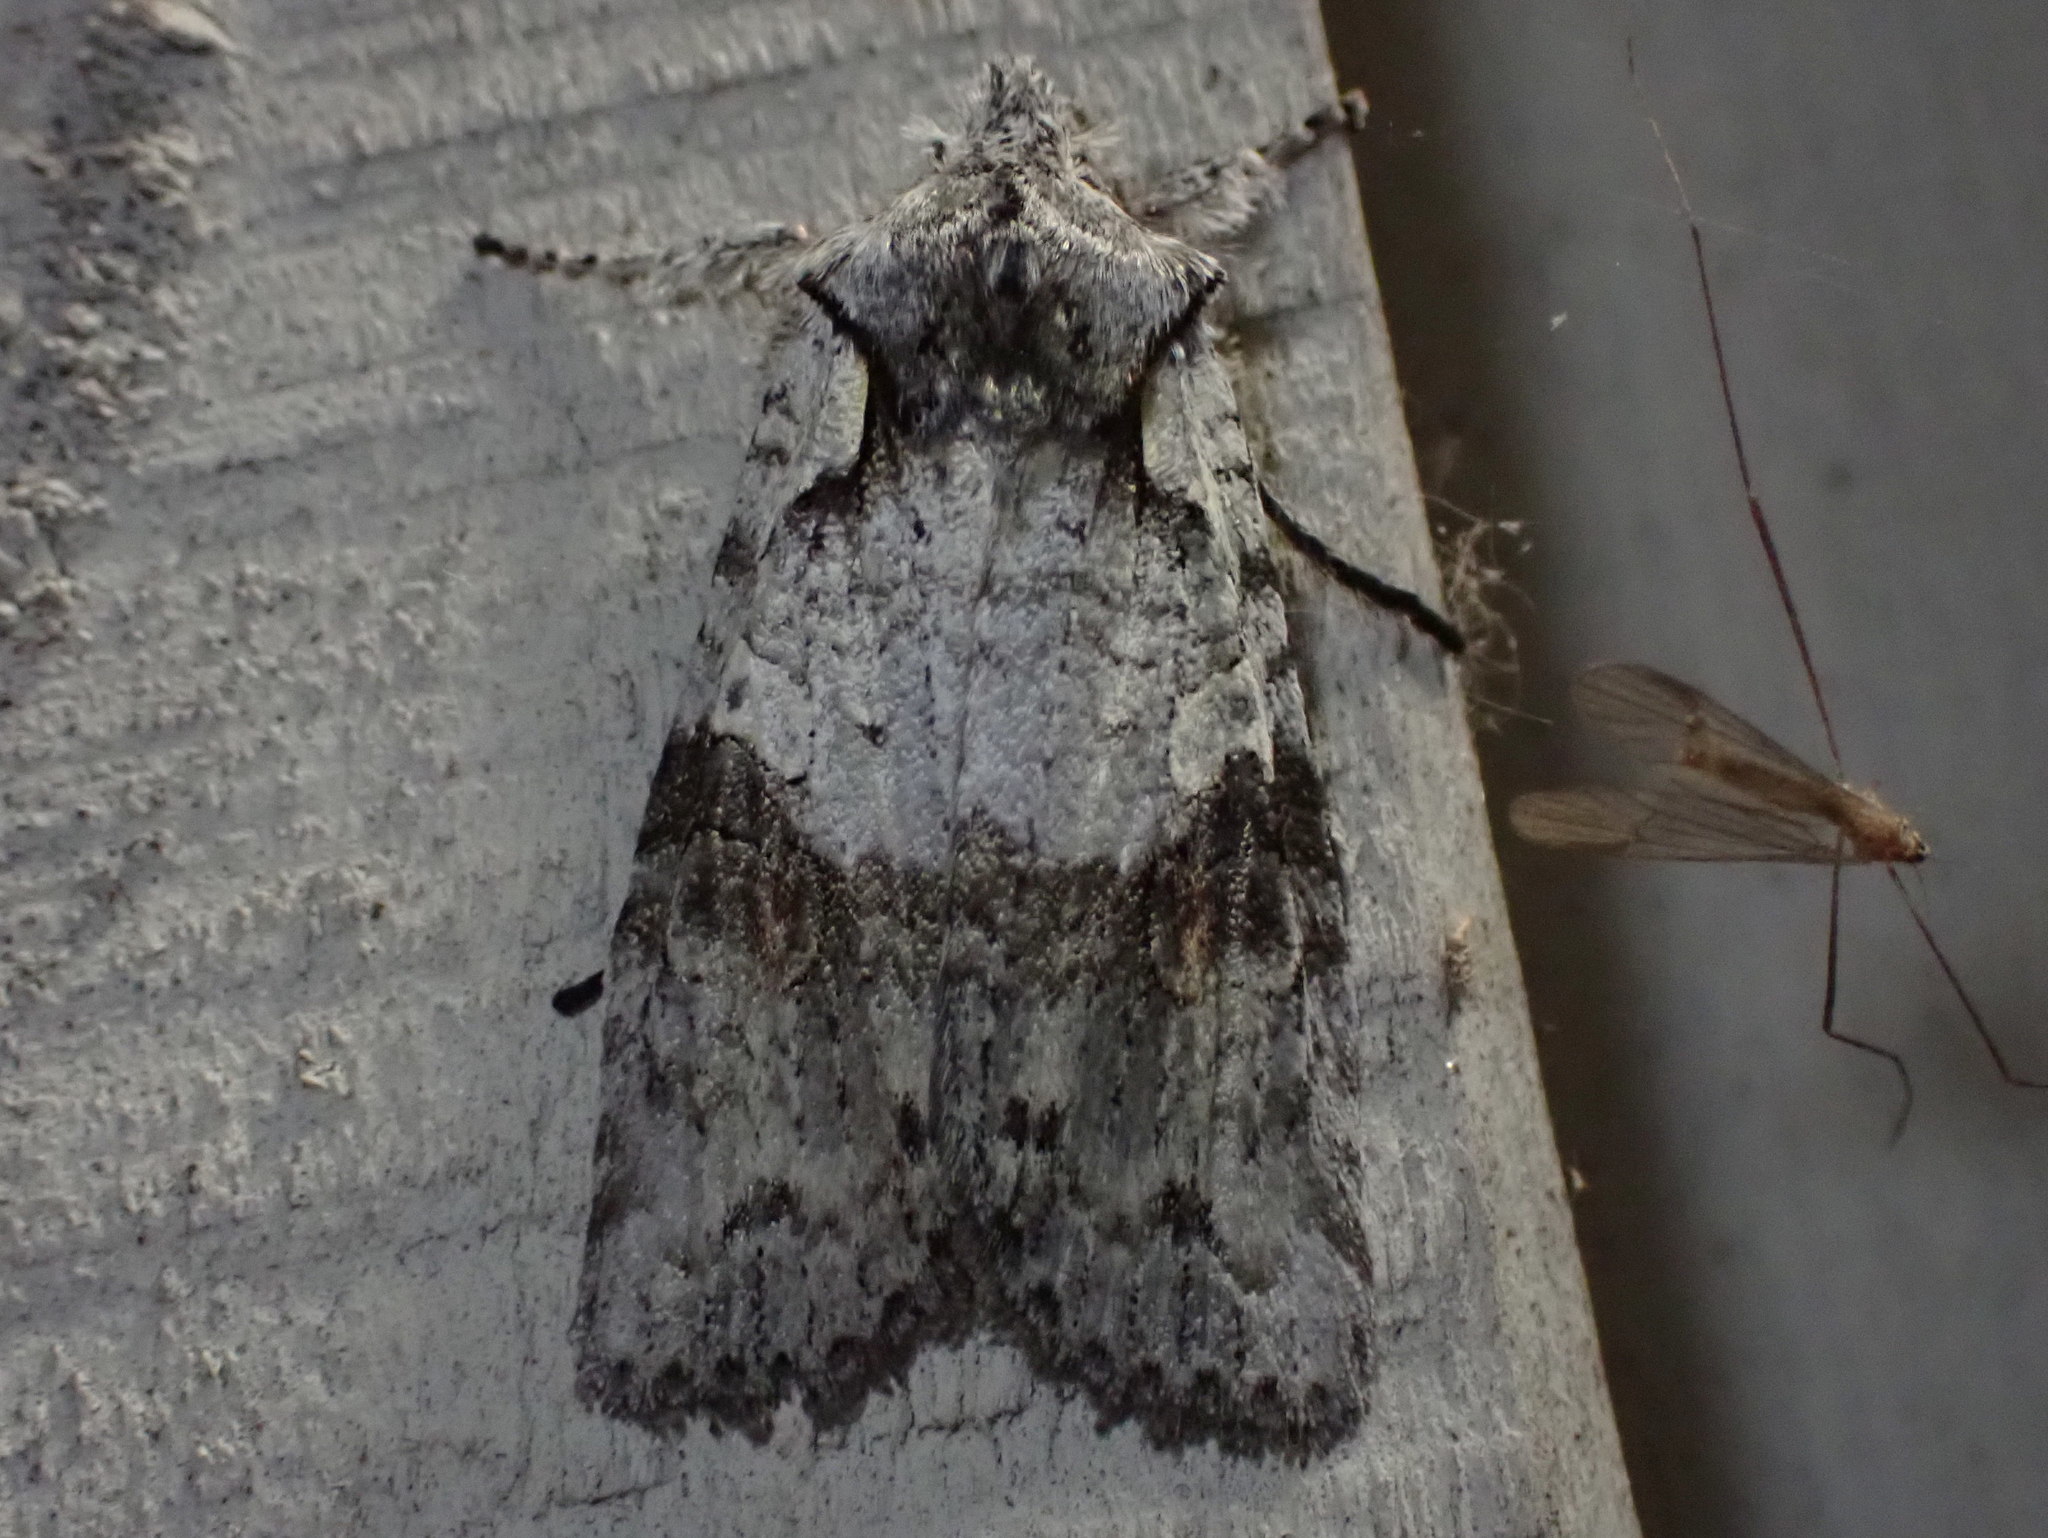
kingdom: Animalia
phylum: Arthropoda
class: Insecta
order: Lepidoptera
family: Noctuidae
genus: Lithophane
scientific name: Lithophane baileyi
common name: Bailey's pinion moth
